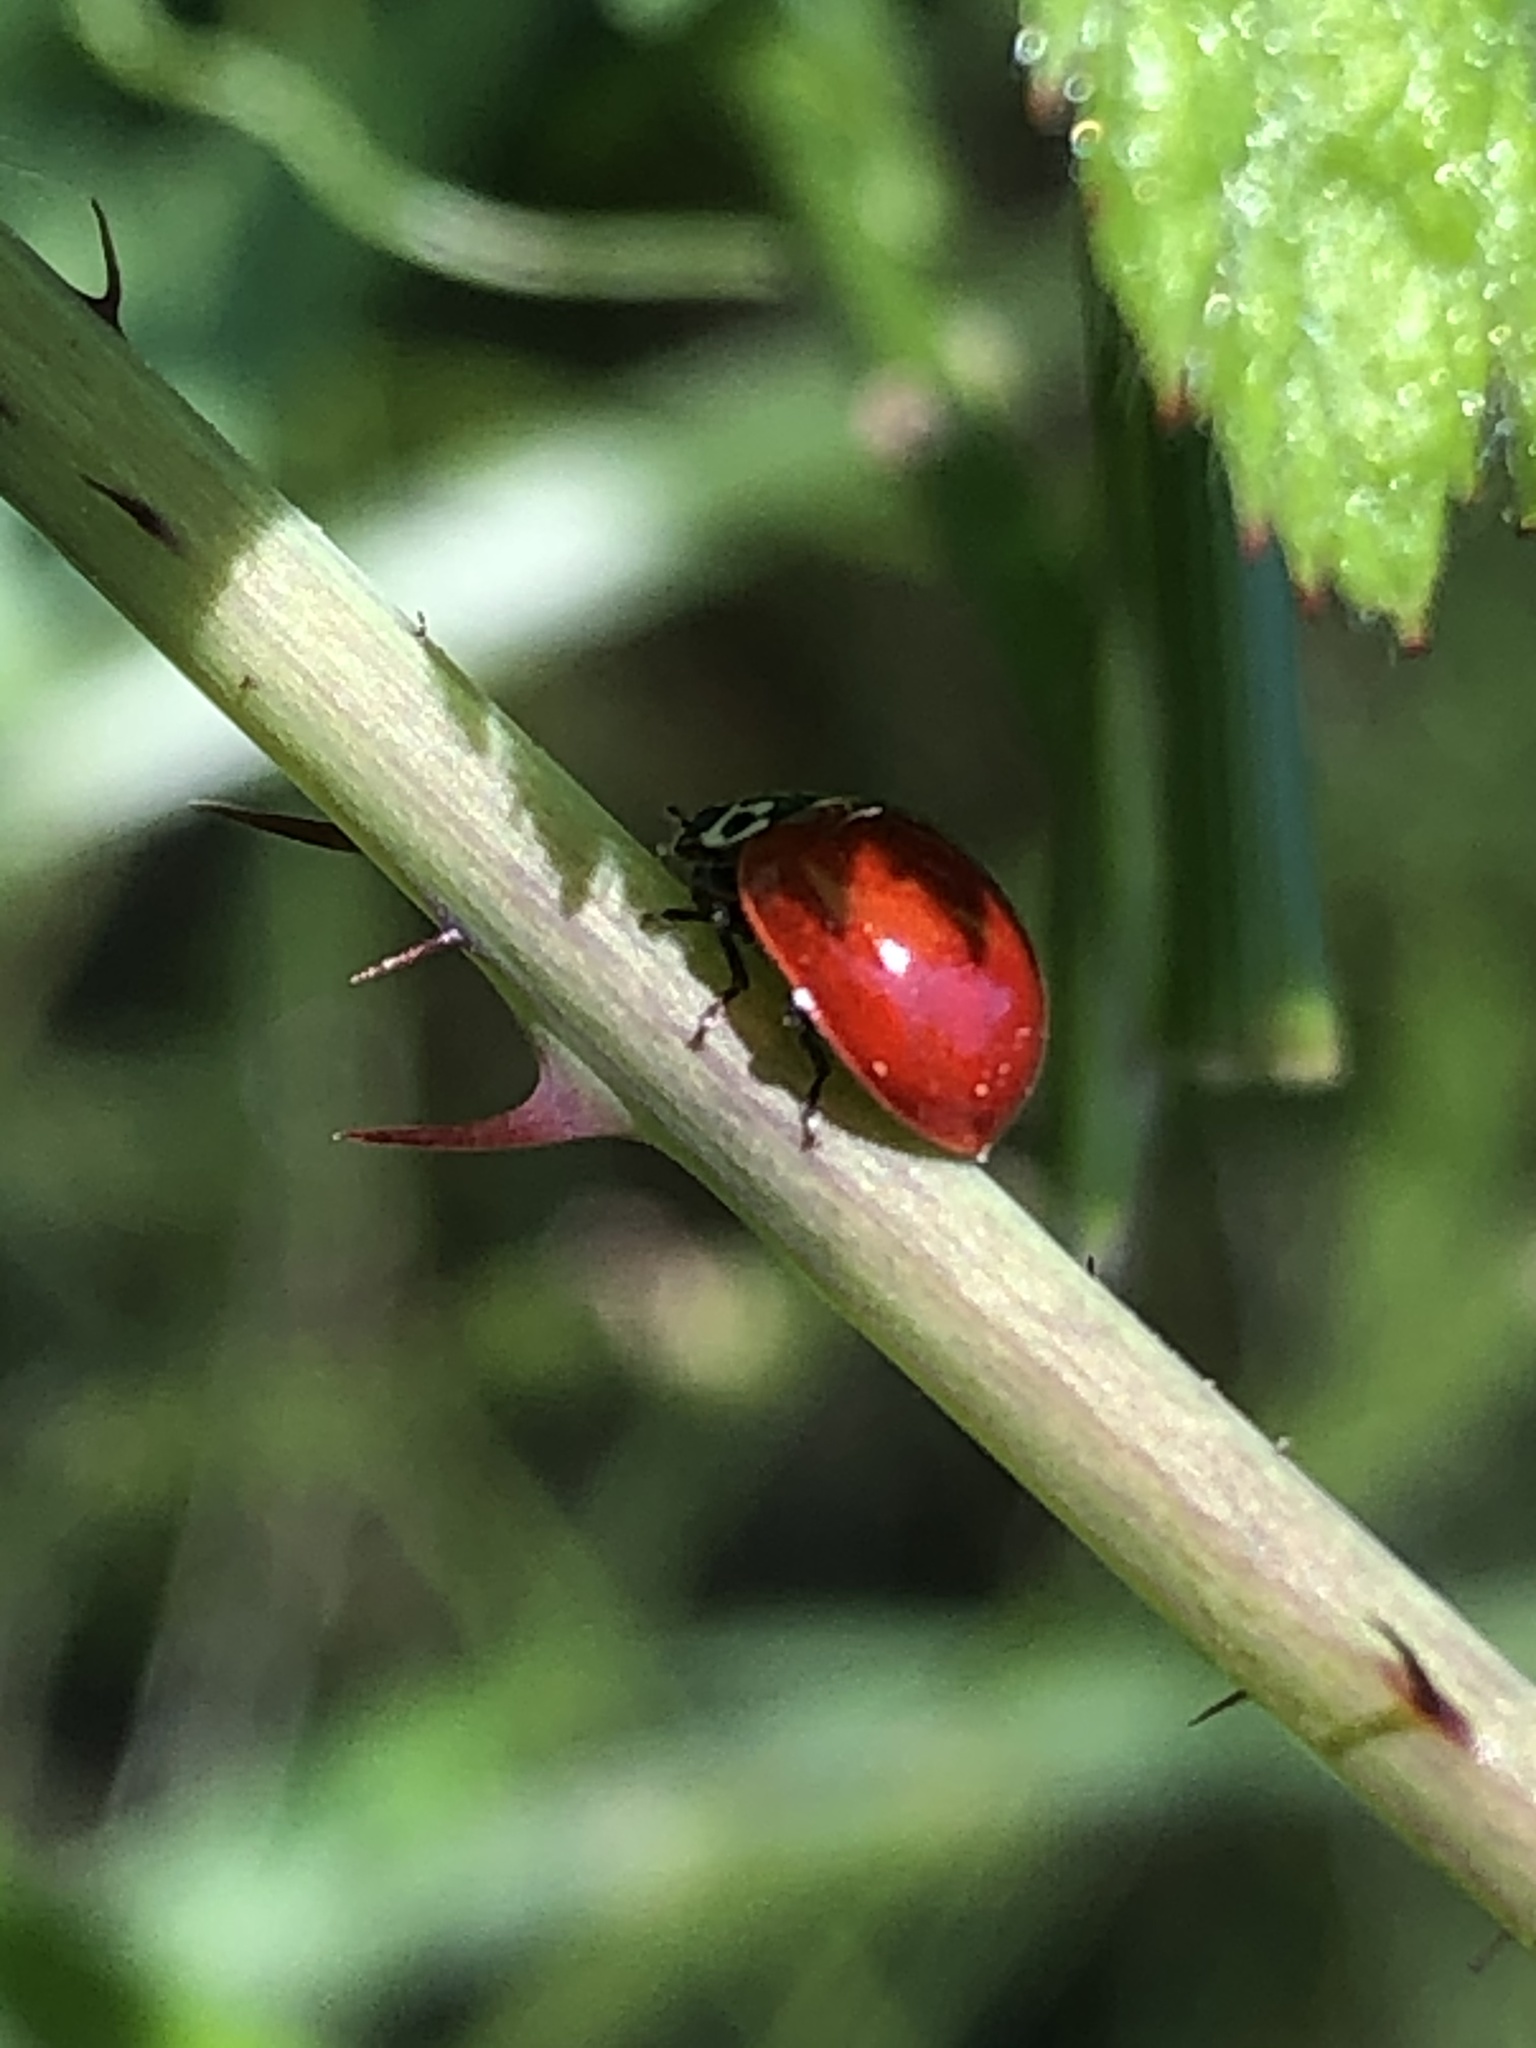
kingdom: Animalia
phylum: Arthropoda
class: Insecta
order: Coleoptera
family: Coccinellidae
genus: Cycloneda
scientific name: Cycloneda polita
